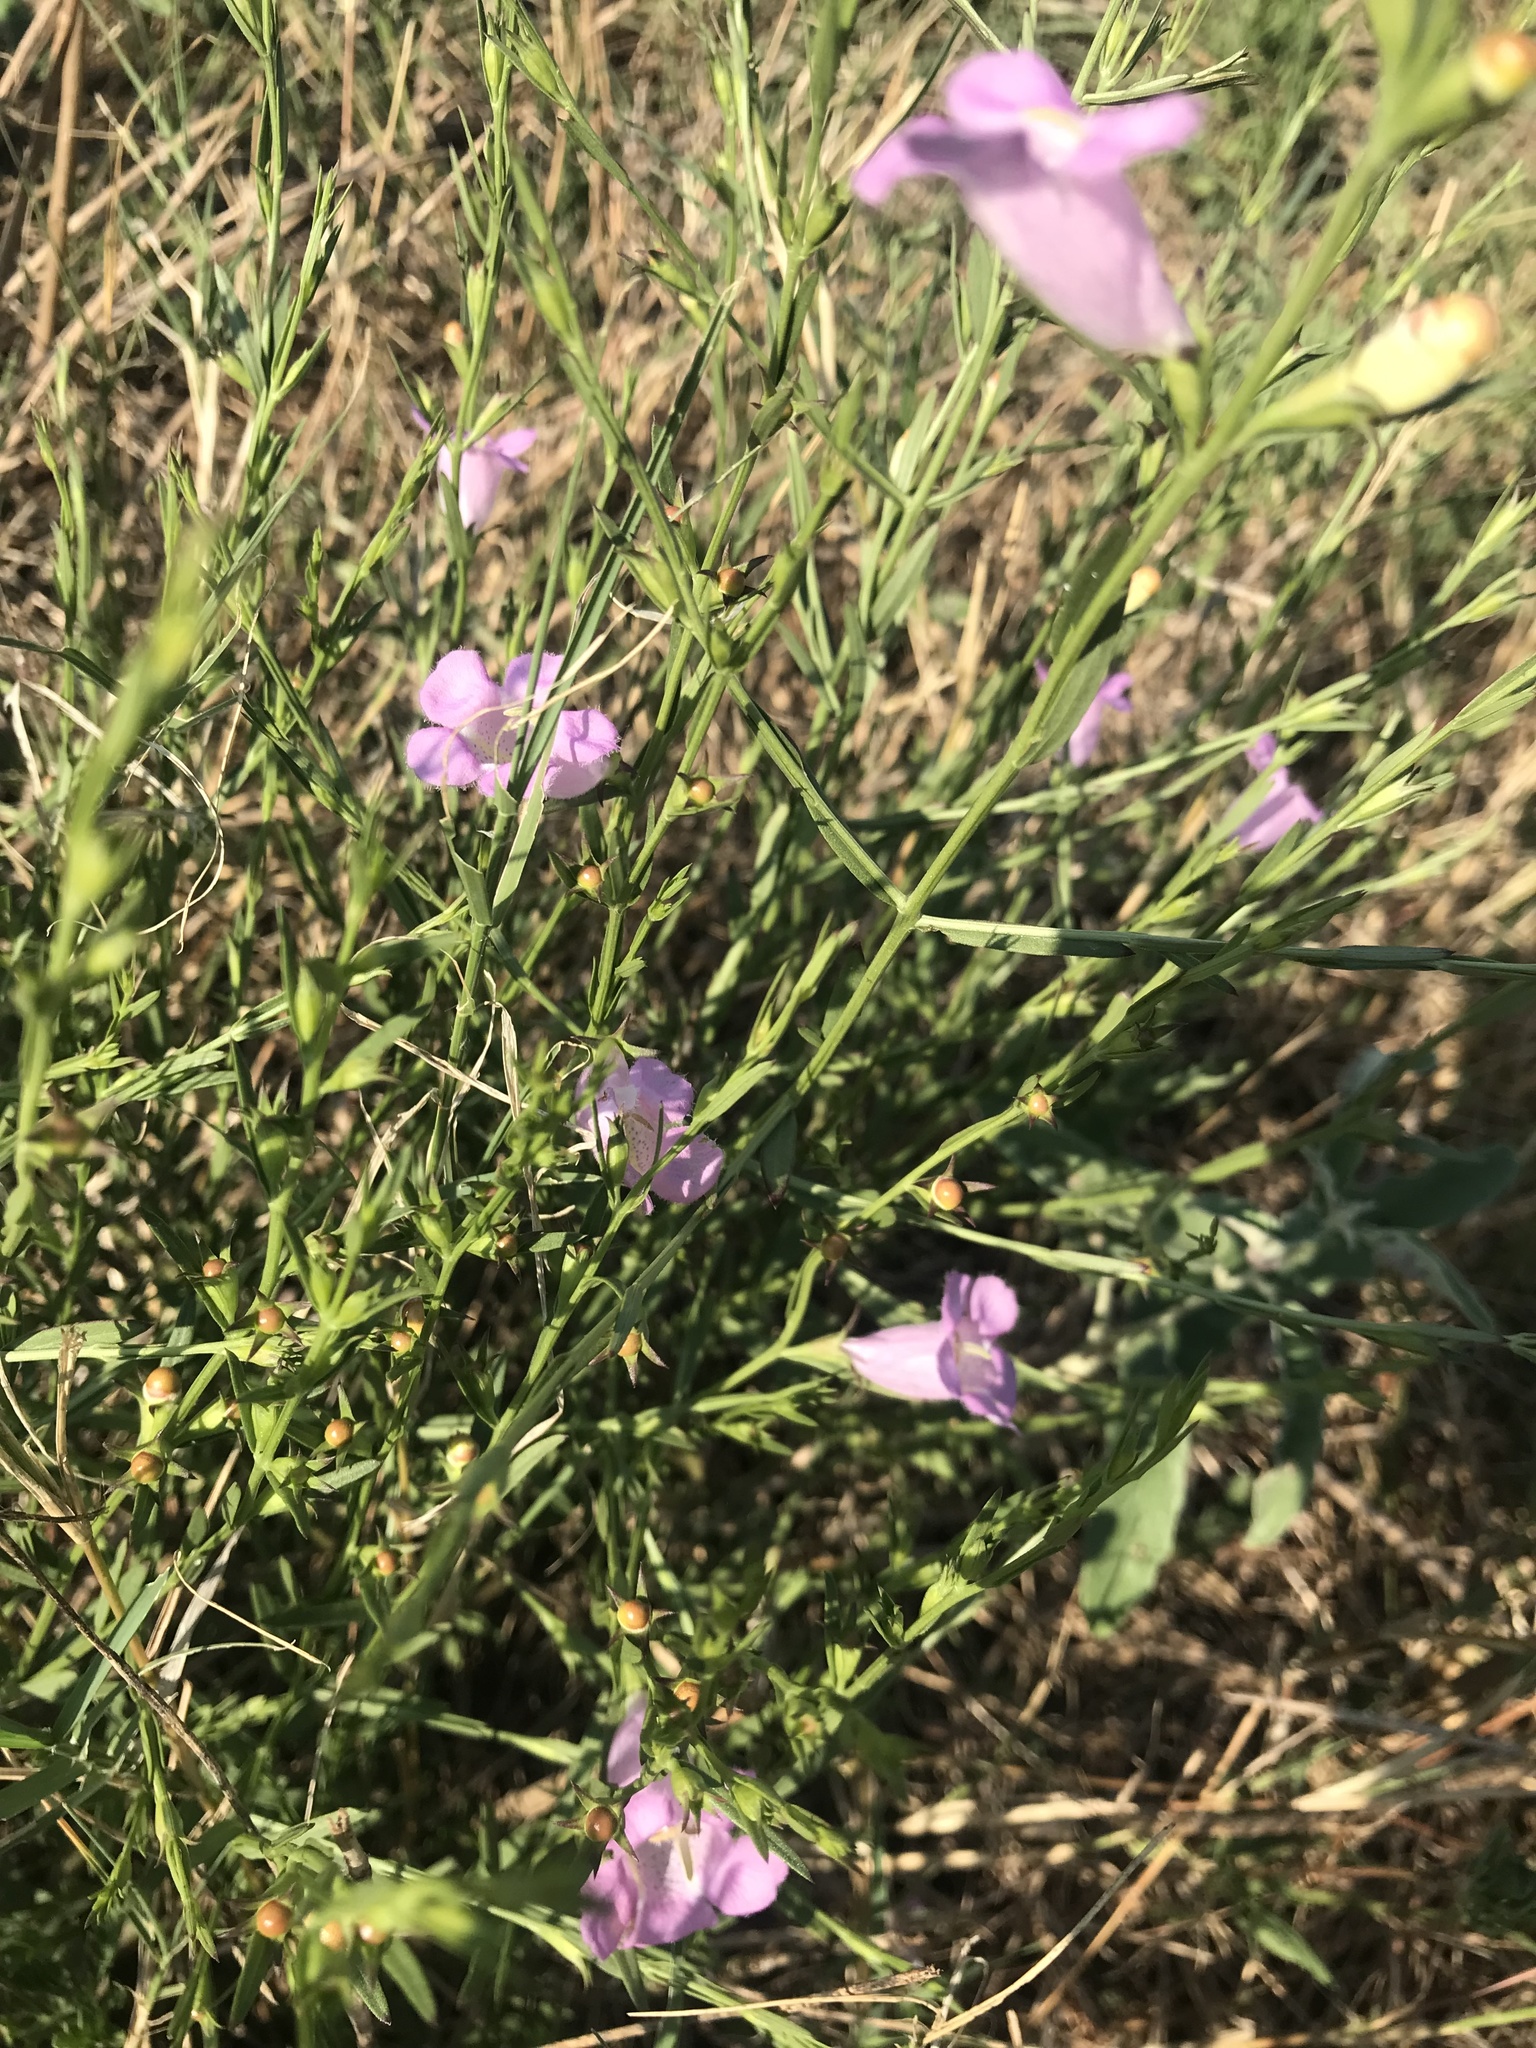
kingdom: Plantae
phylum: Tracheophyta
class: Magnoliopsida
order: Lamiales
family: Orobanchaceae
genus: Agalinis
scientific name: Agalinis heterophylla
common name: Prairie agalinis
